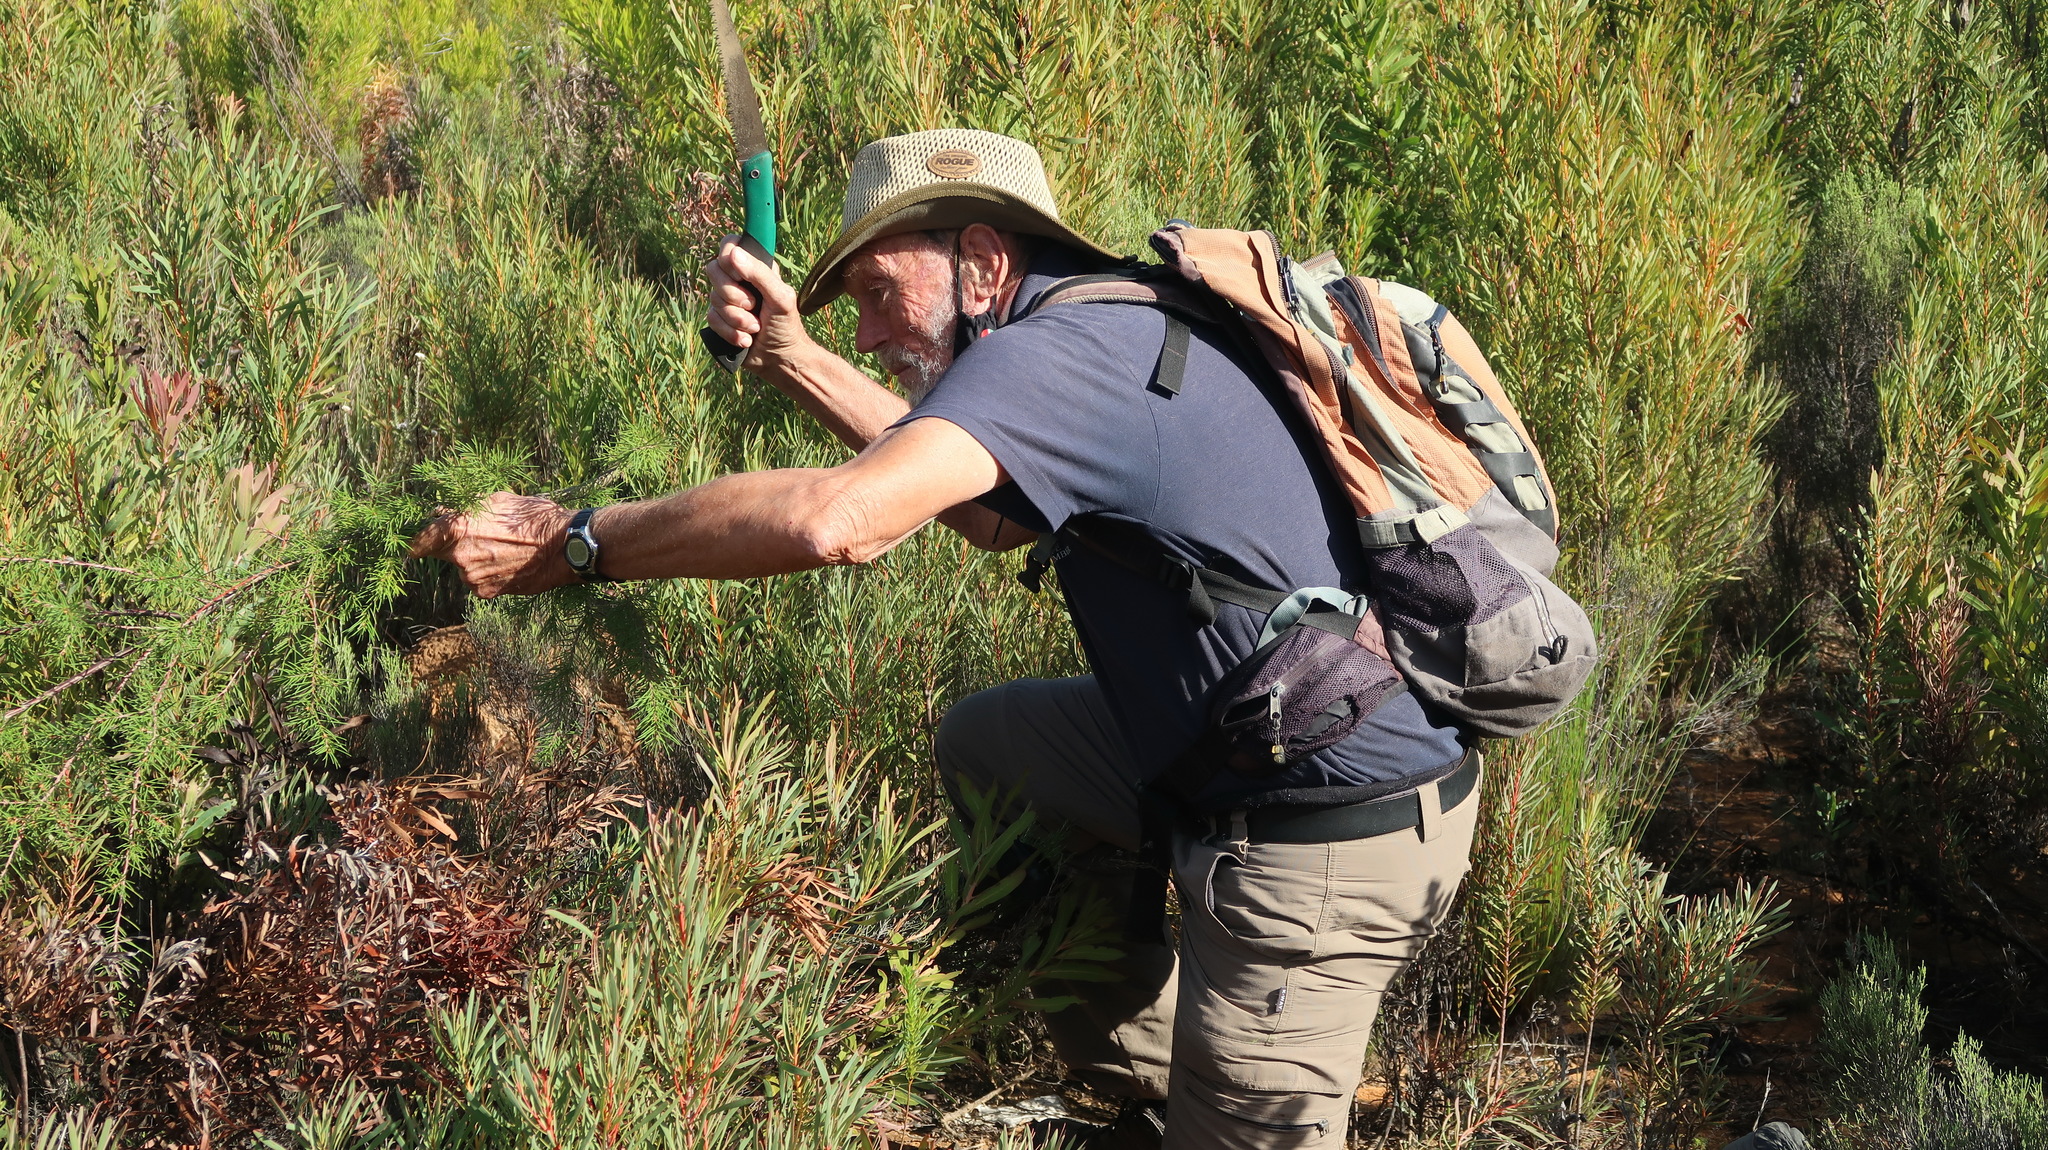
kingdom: Plantae
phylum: Tracheophyta
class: Magnoliopsida
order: Proteales
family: Proteaceae
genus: Hakea
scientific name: Hakea sericea
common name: Needle bush
